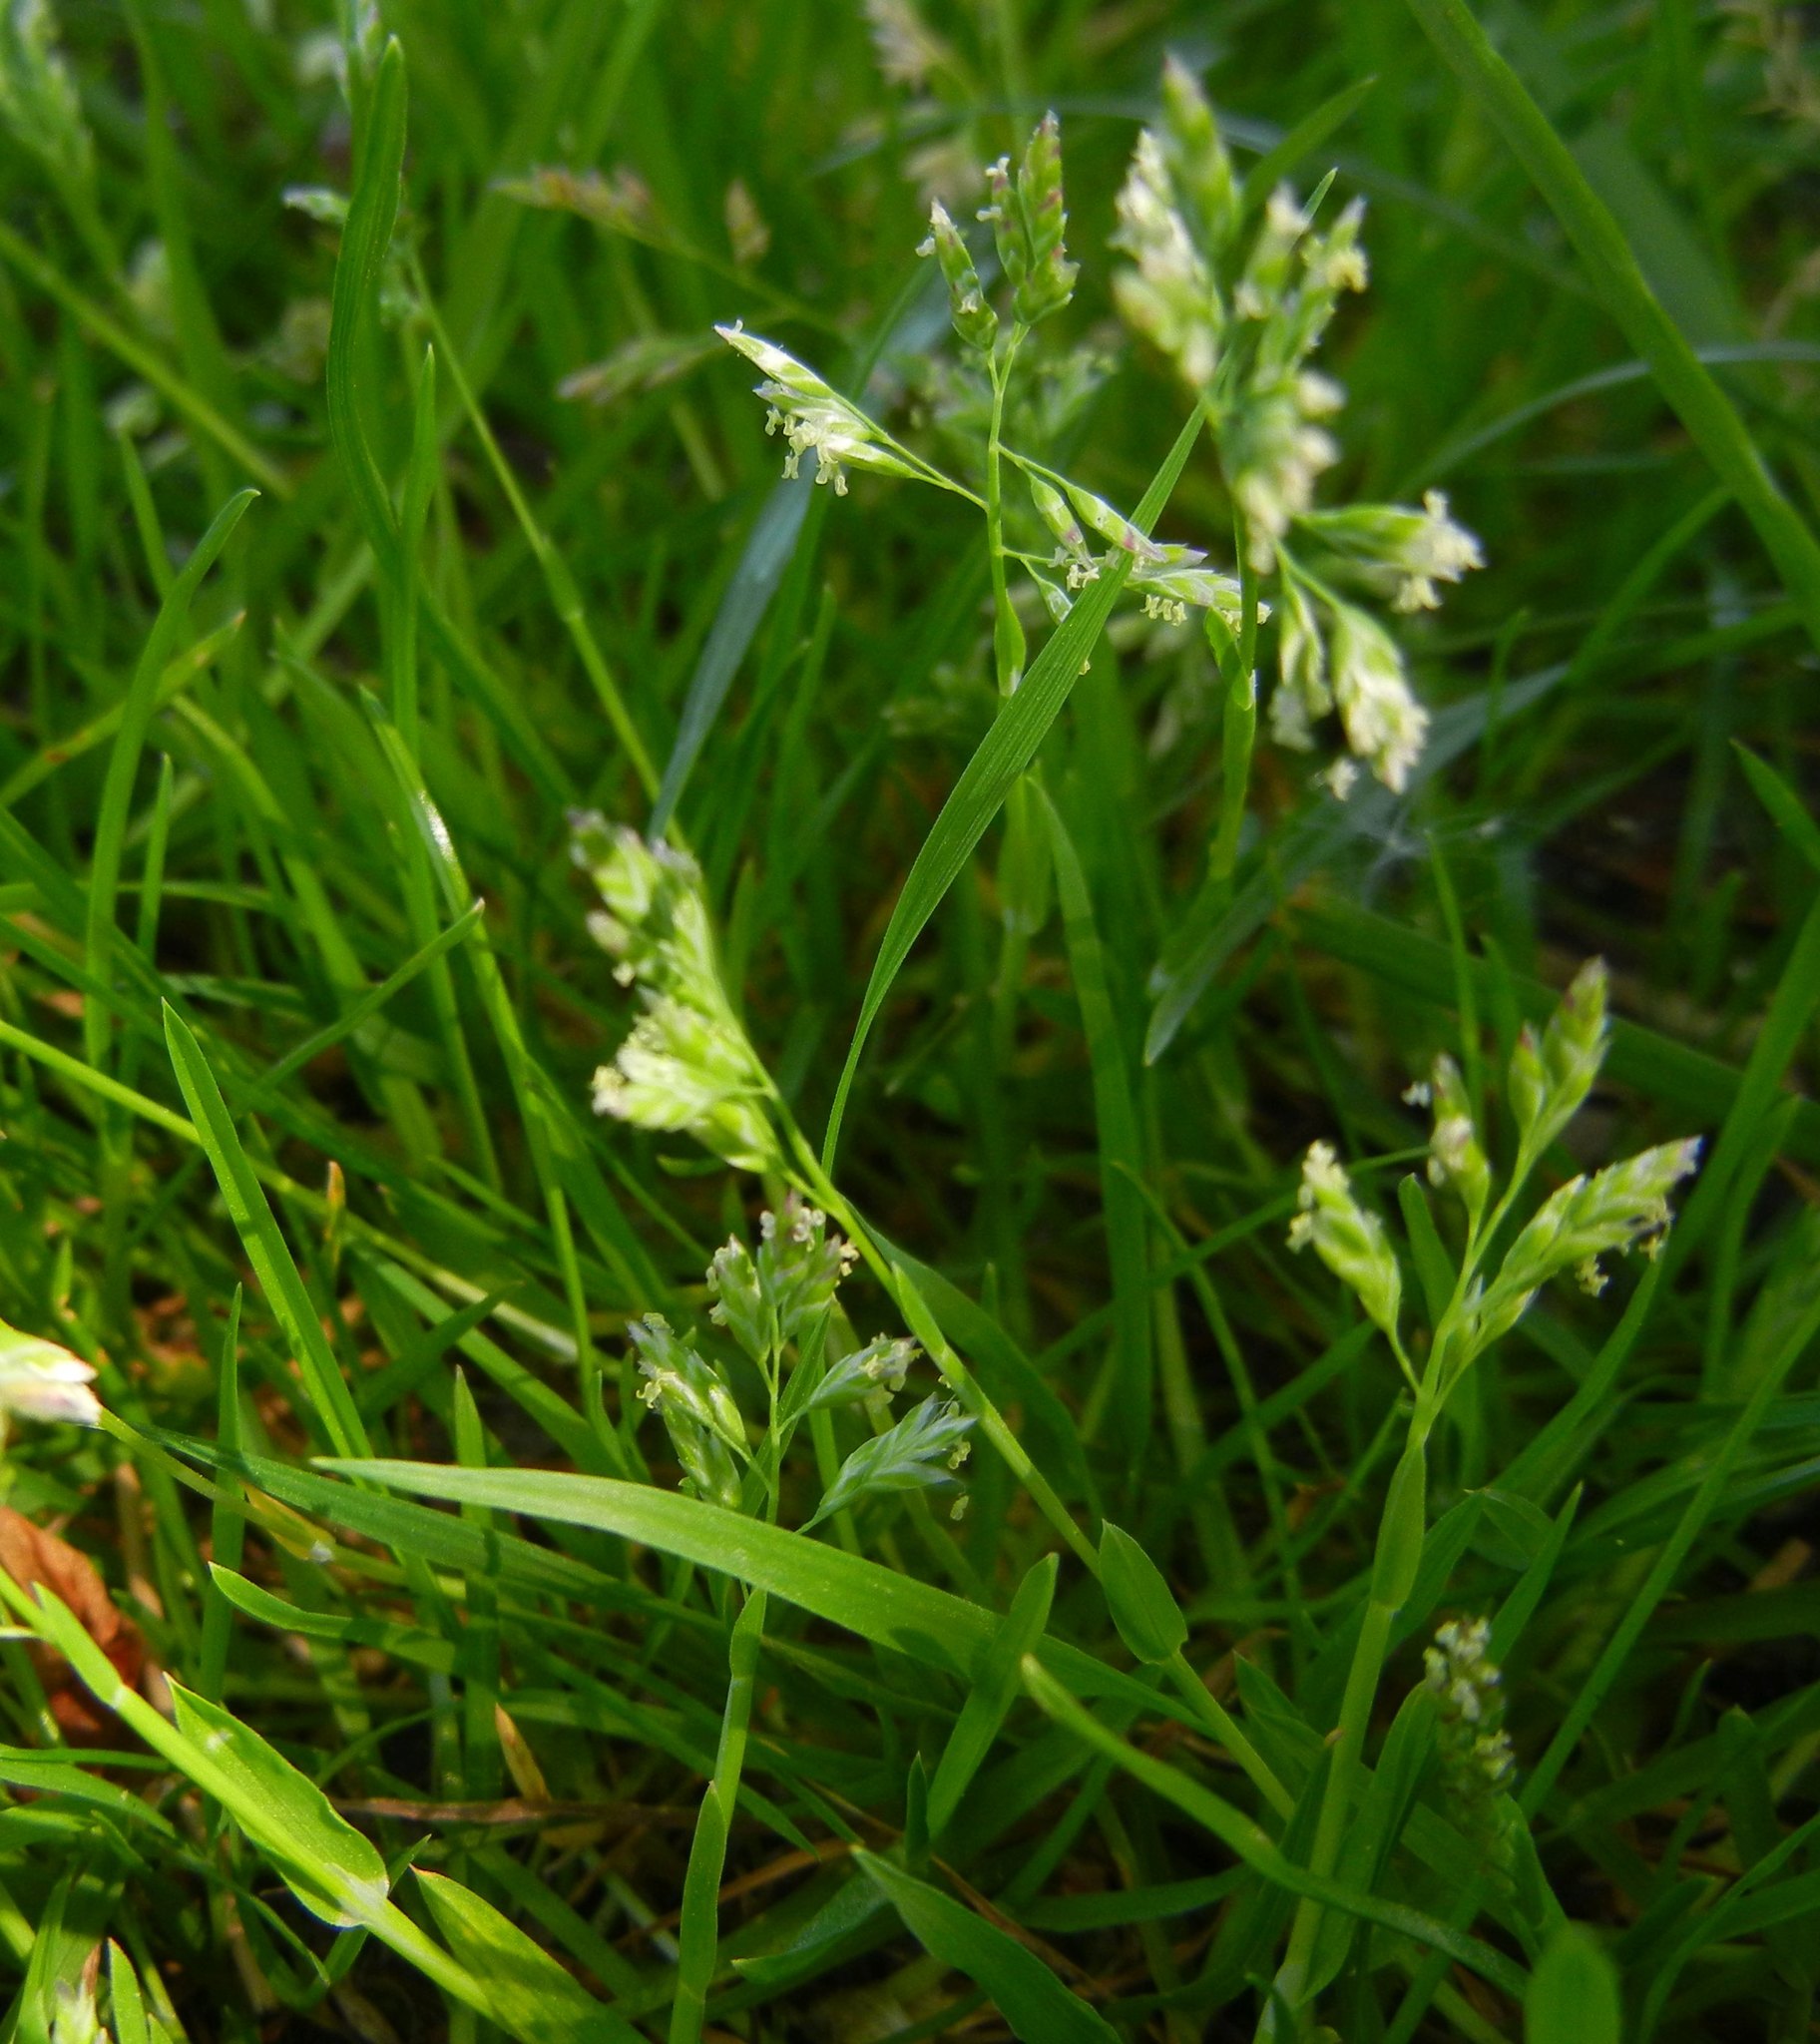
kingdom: Plantae
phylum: Tracheophyta
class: Liliopsida
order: Poales
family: Poaceae
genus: Poa
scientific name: Poa annua
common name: Annual bluegrass
